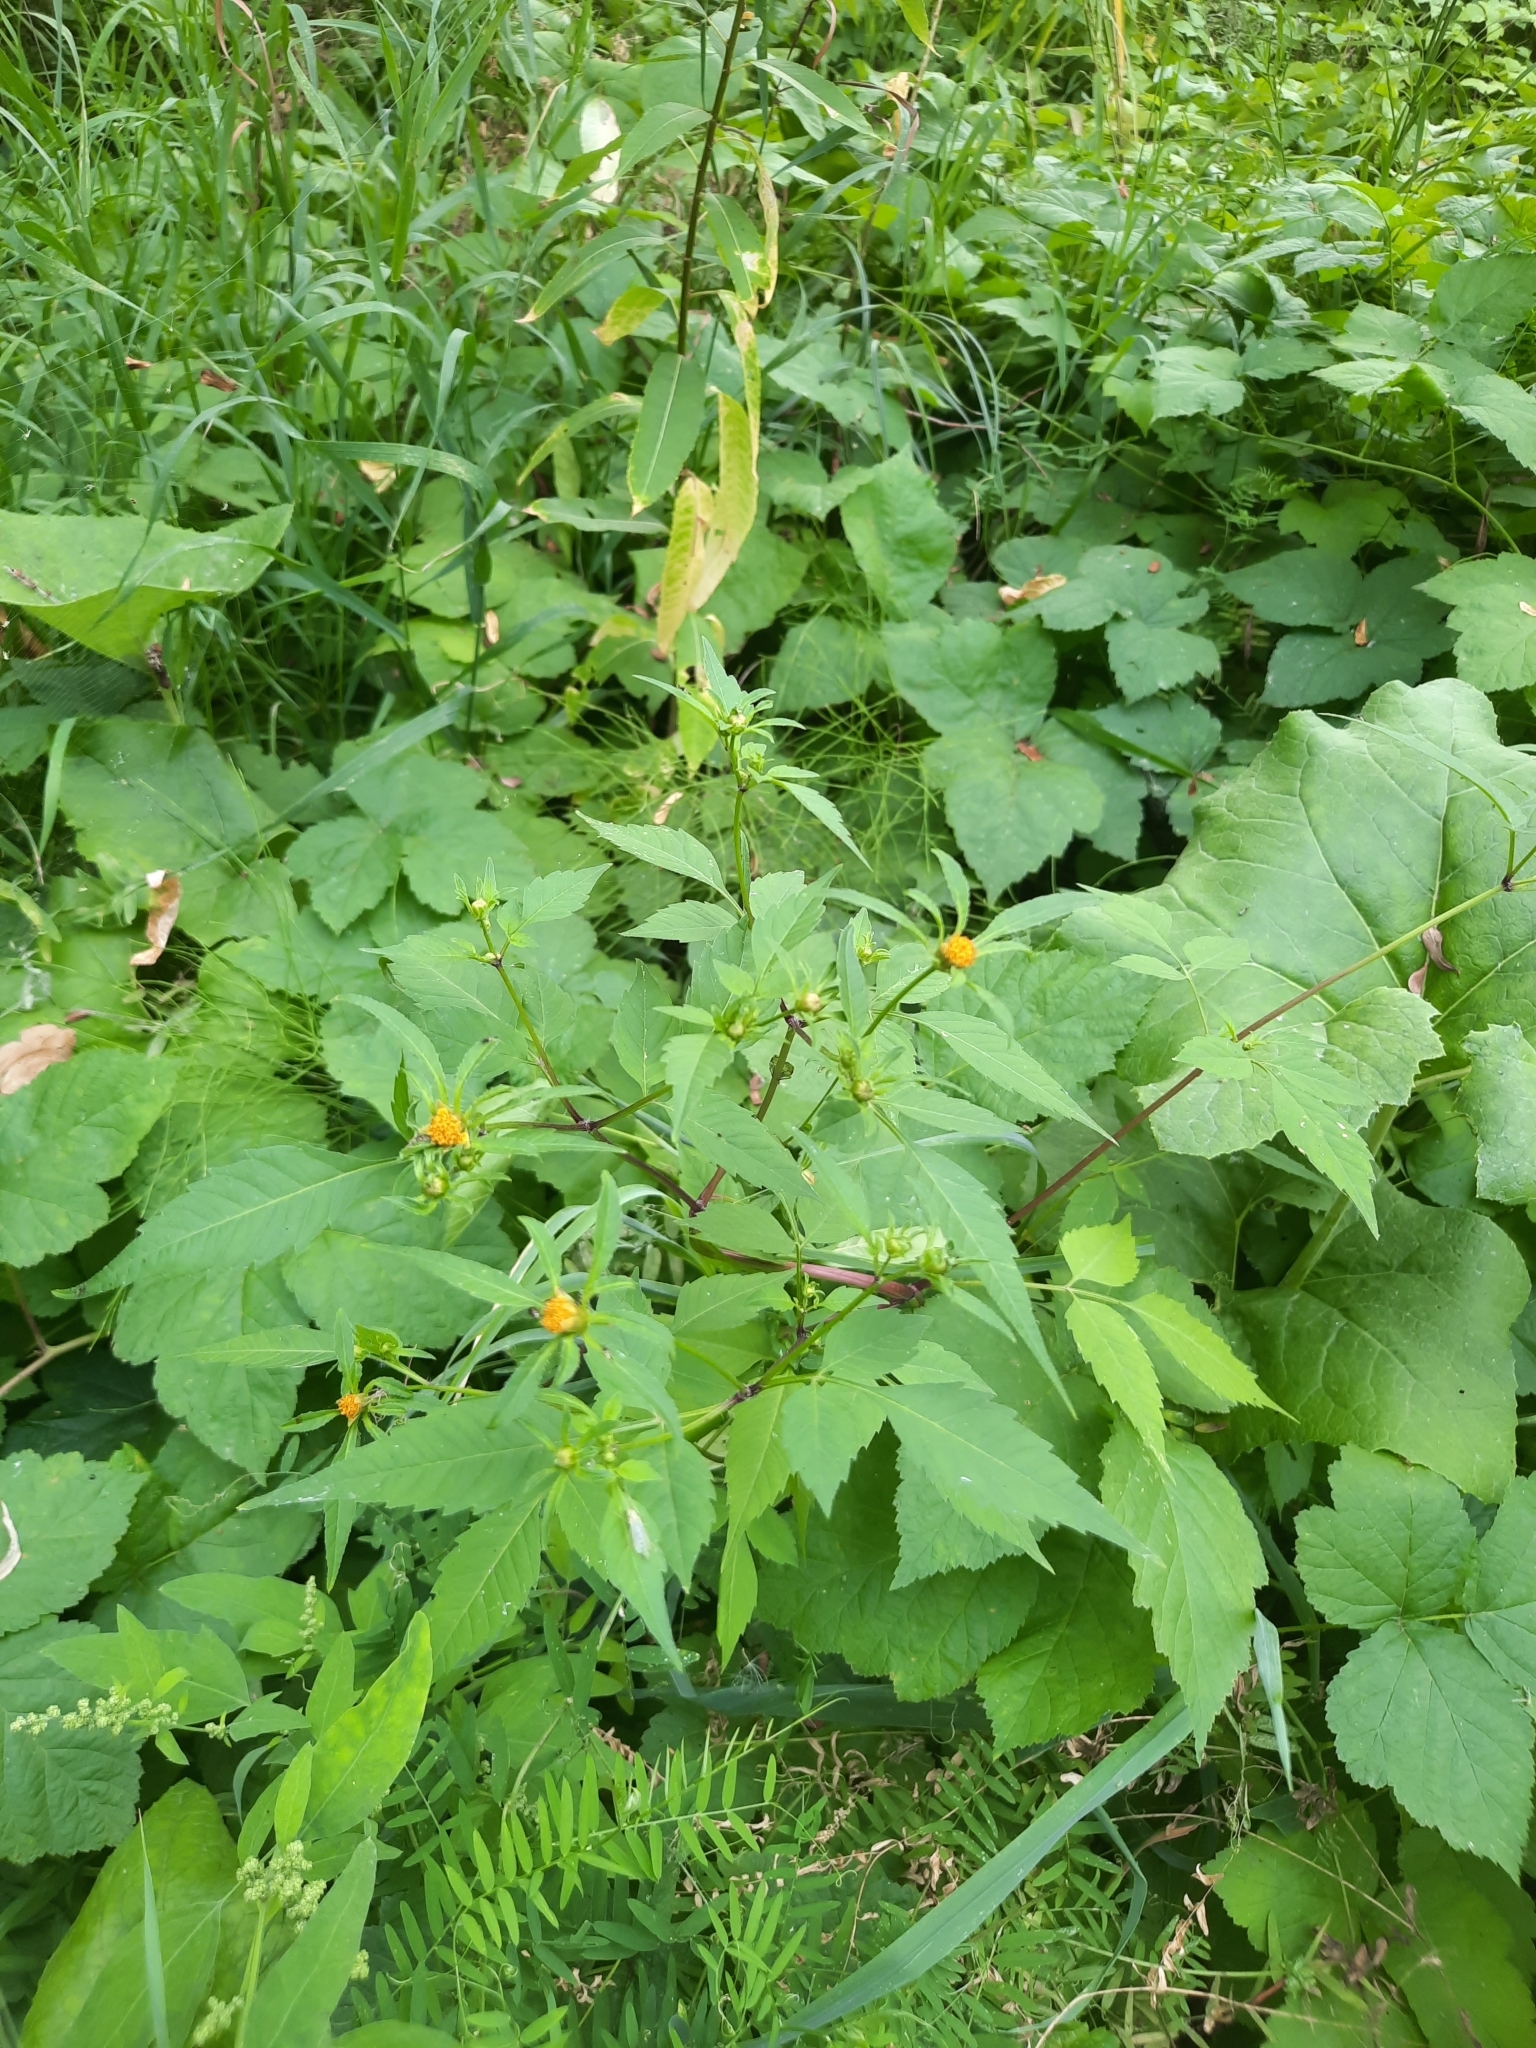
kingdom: Plantae
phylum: Tracheophyta
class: Magnoliopsida
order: Asterales
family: Asteraceae
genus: Bidens
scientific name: Bidens frondosa
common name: Beggarticks
